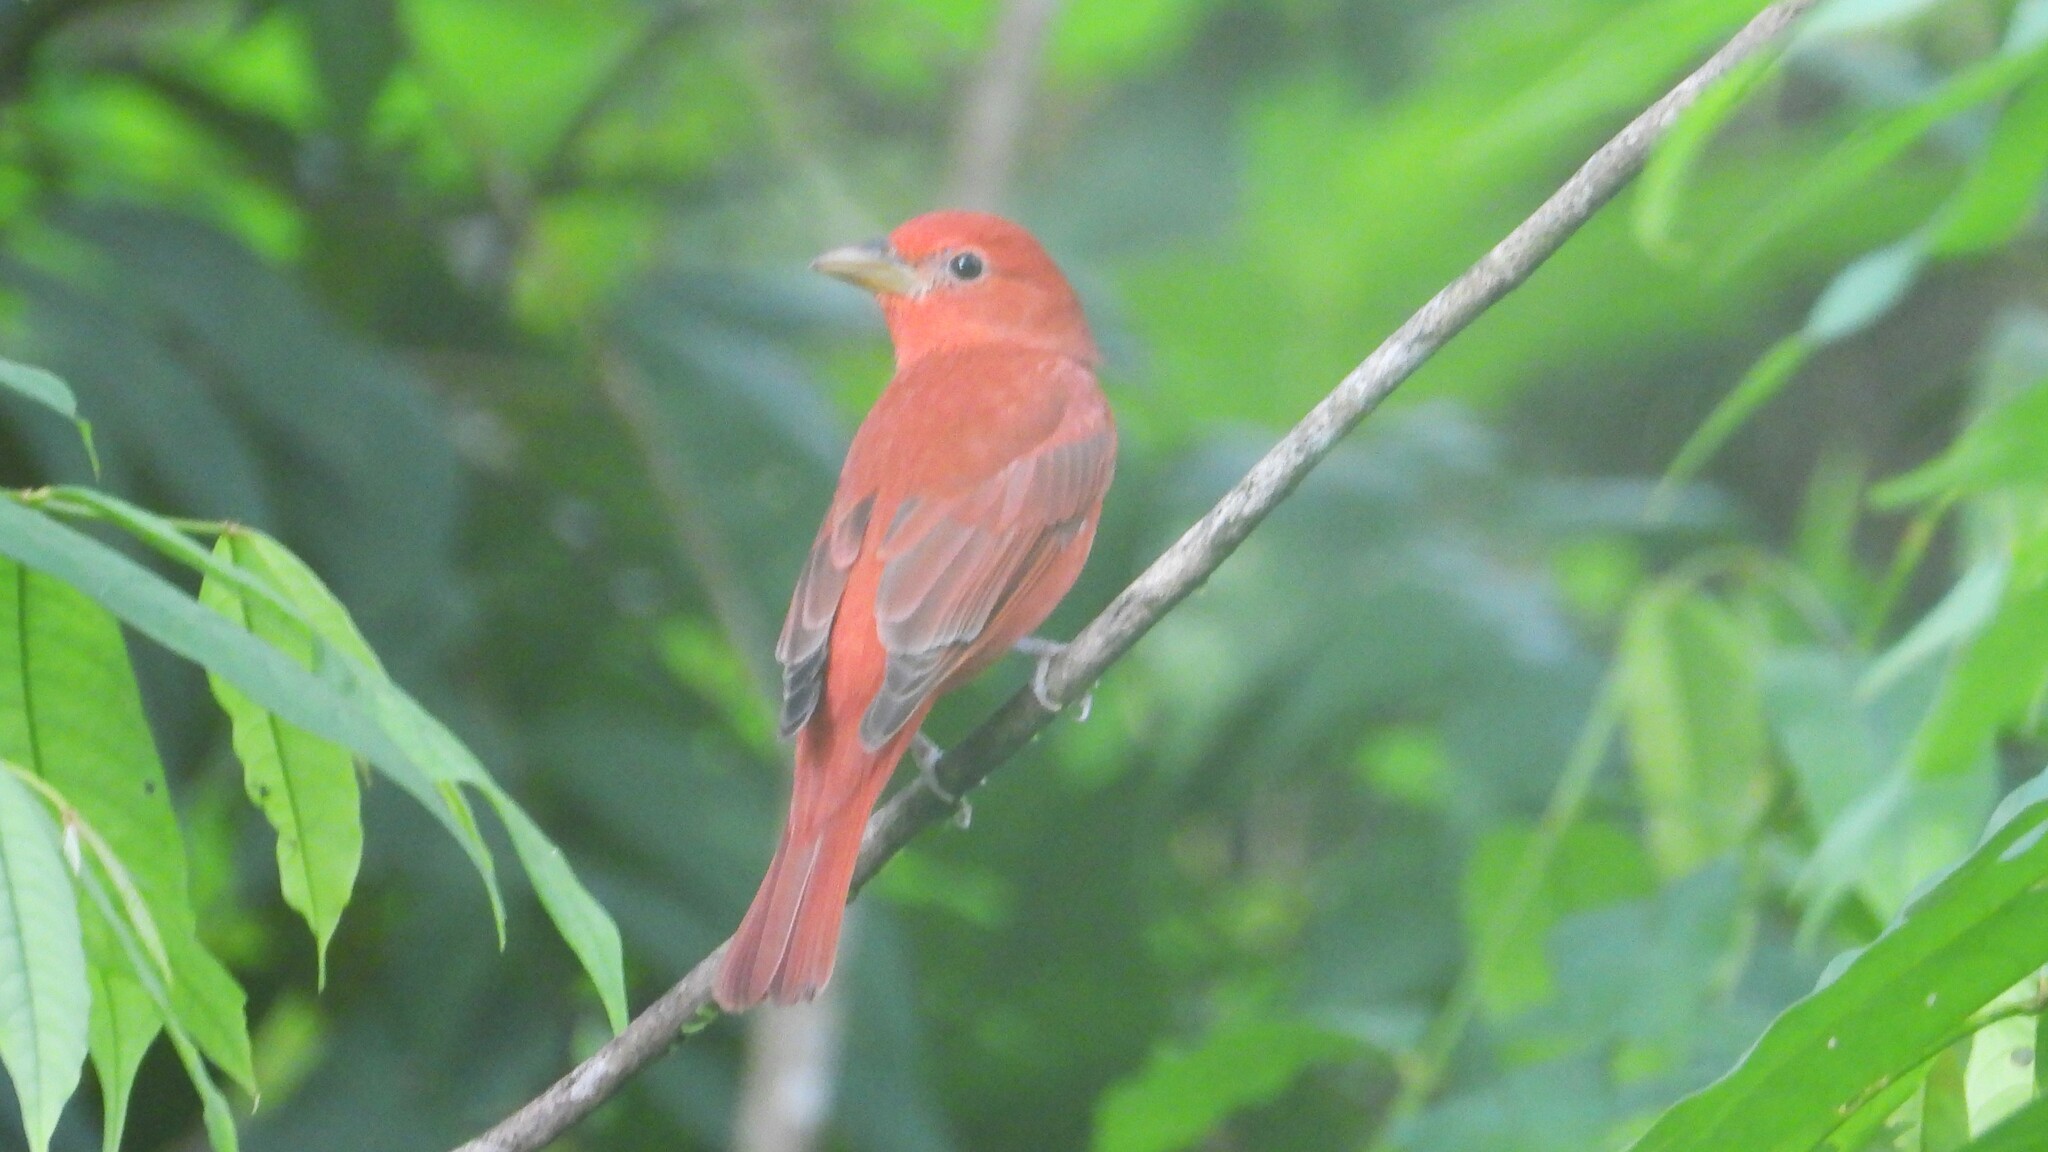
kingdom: Animalia
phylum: Chordata
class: Aves
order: Passeriformes
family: Cardinalidae
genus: Piranga
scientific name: Piranga rubra
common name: Summer tanager
